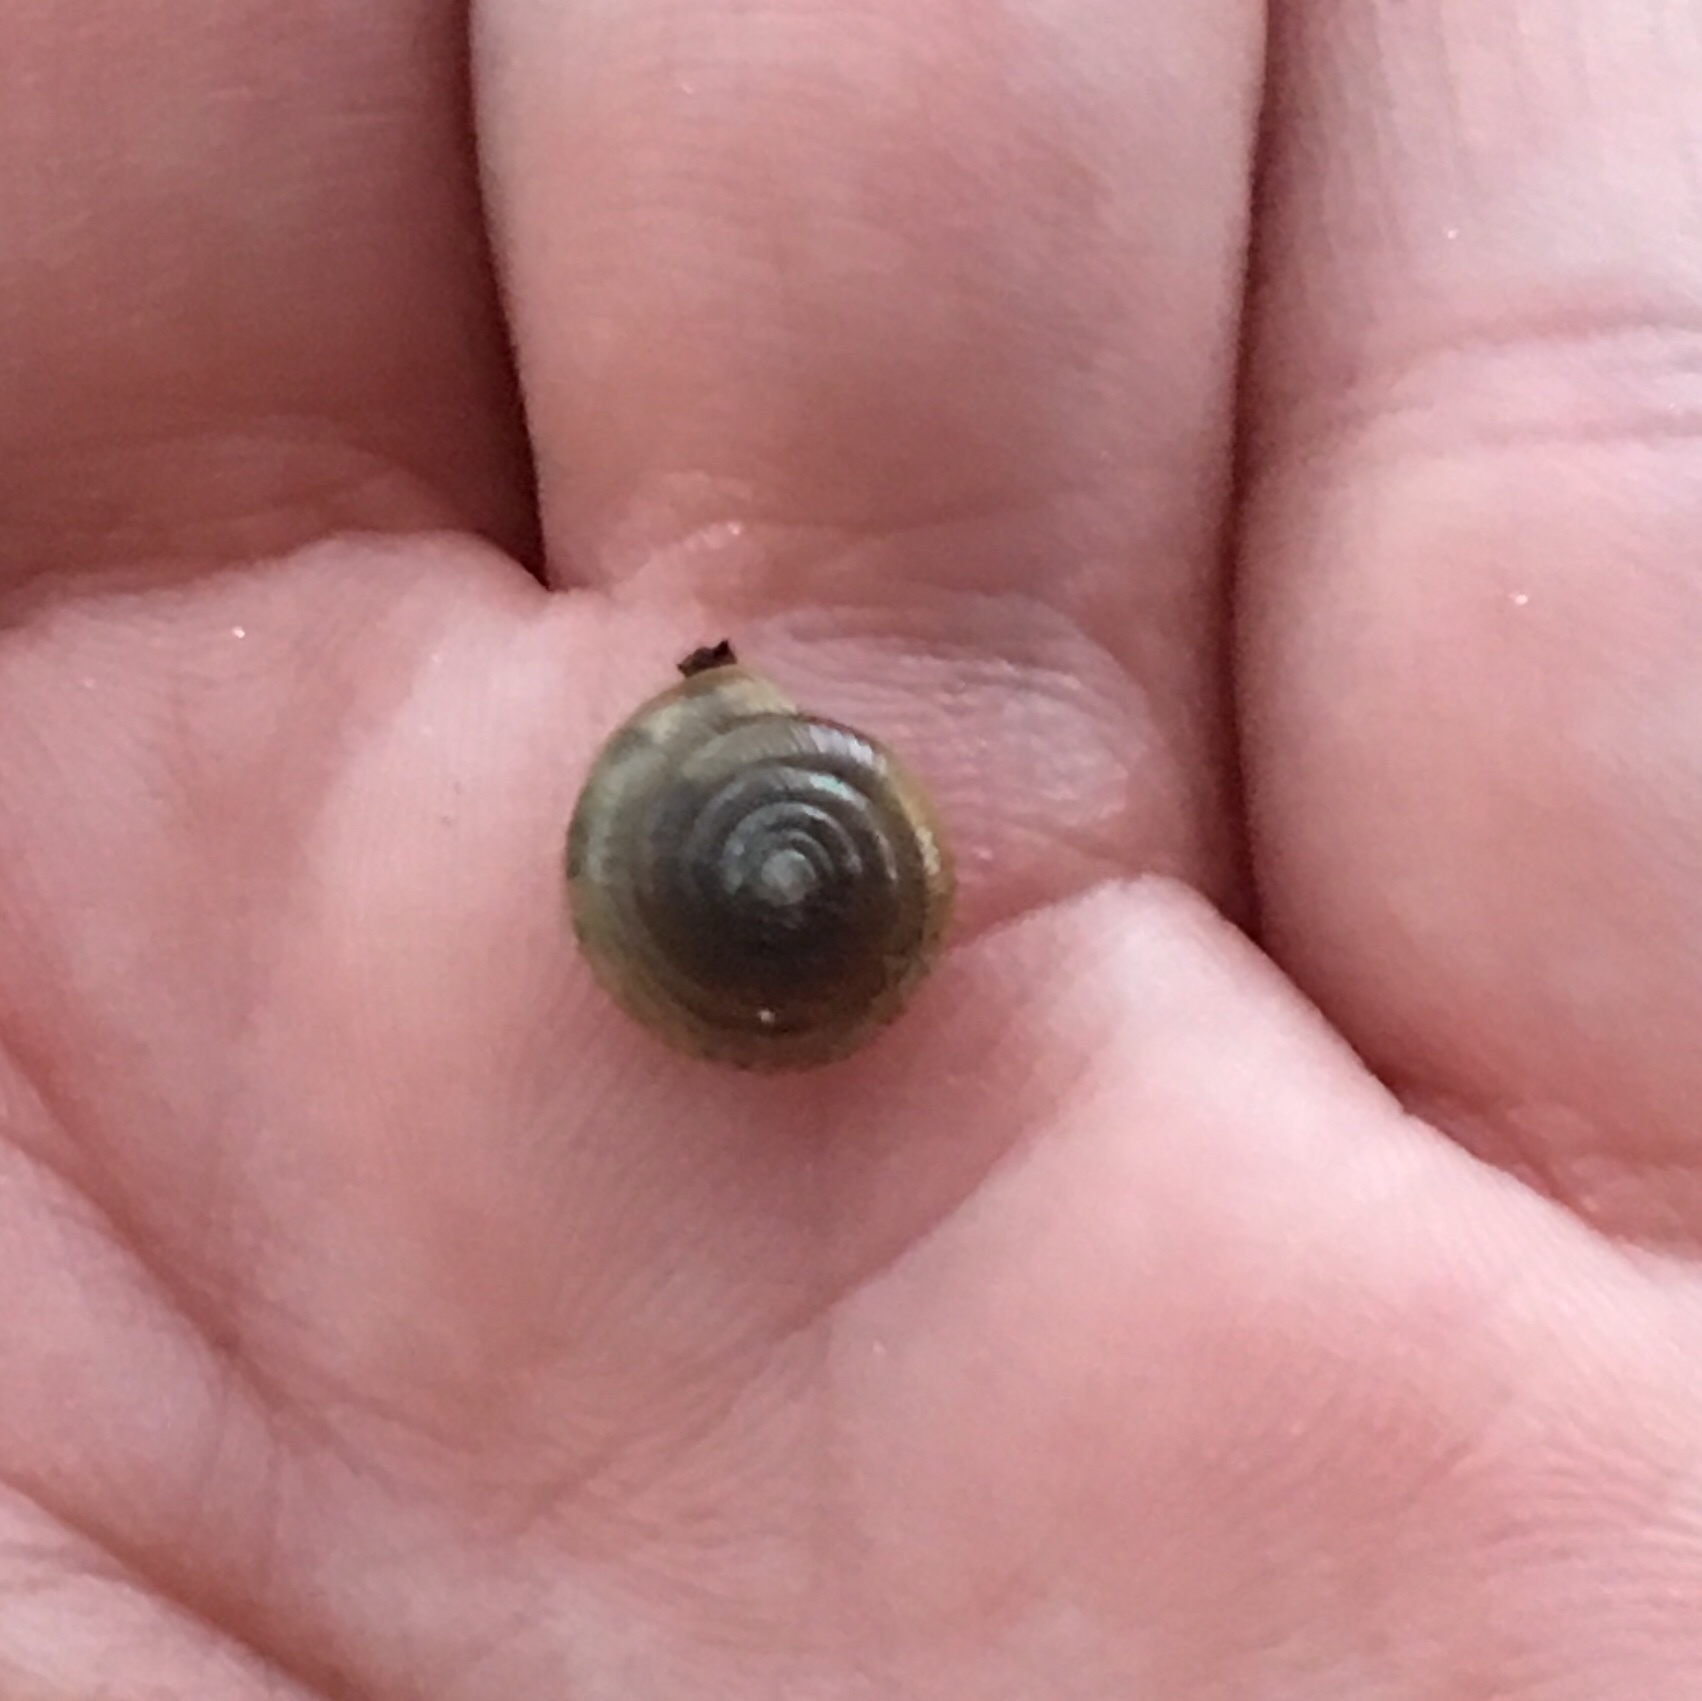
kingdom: Animalia
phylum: Mollusca
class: Gastropoda
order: Stylommatophora
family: Camaenidae
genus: Bradybaena
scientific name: Bradybaena similaris
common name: Asian trampsnail
